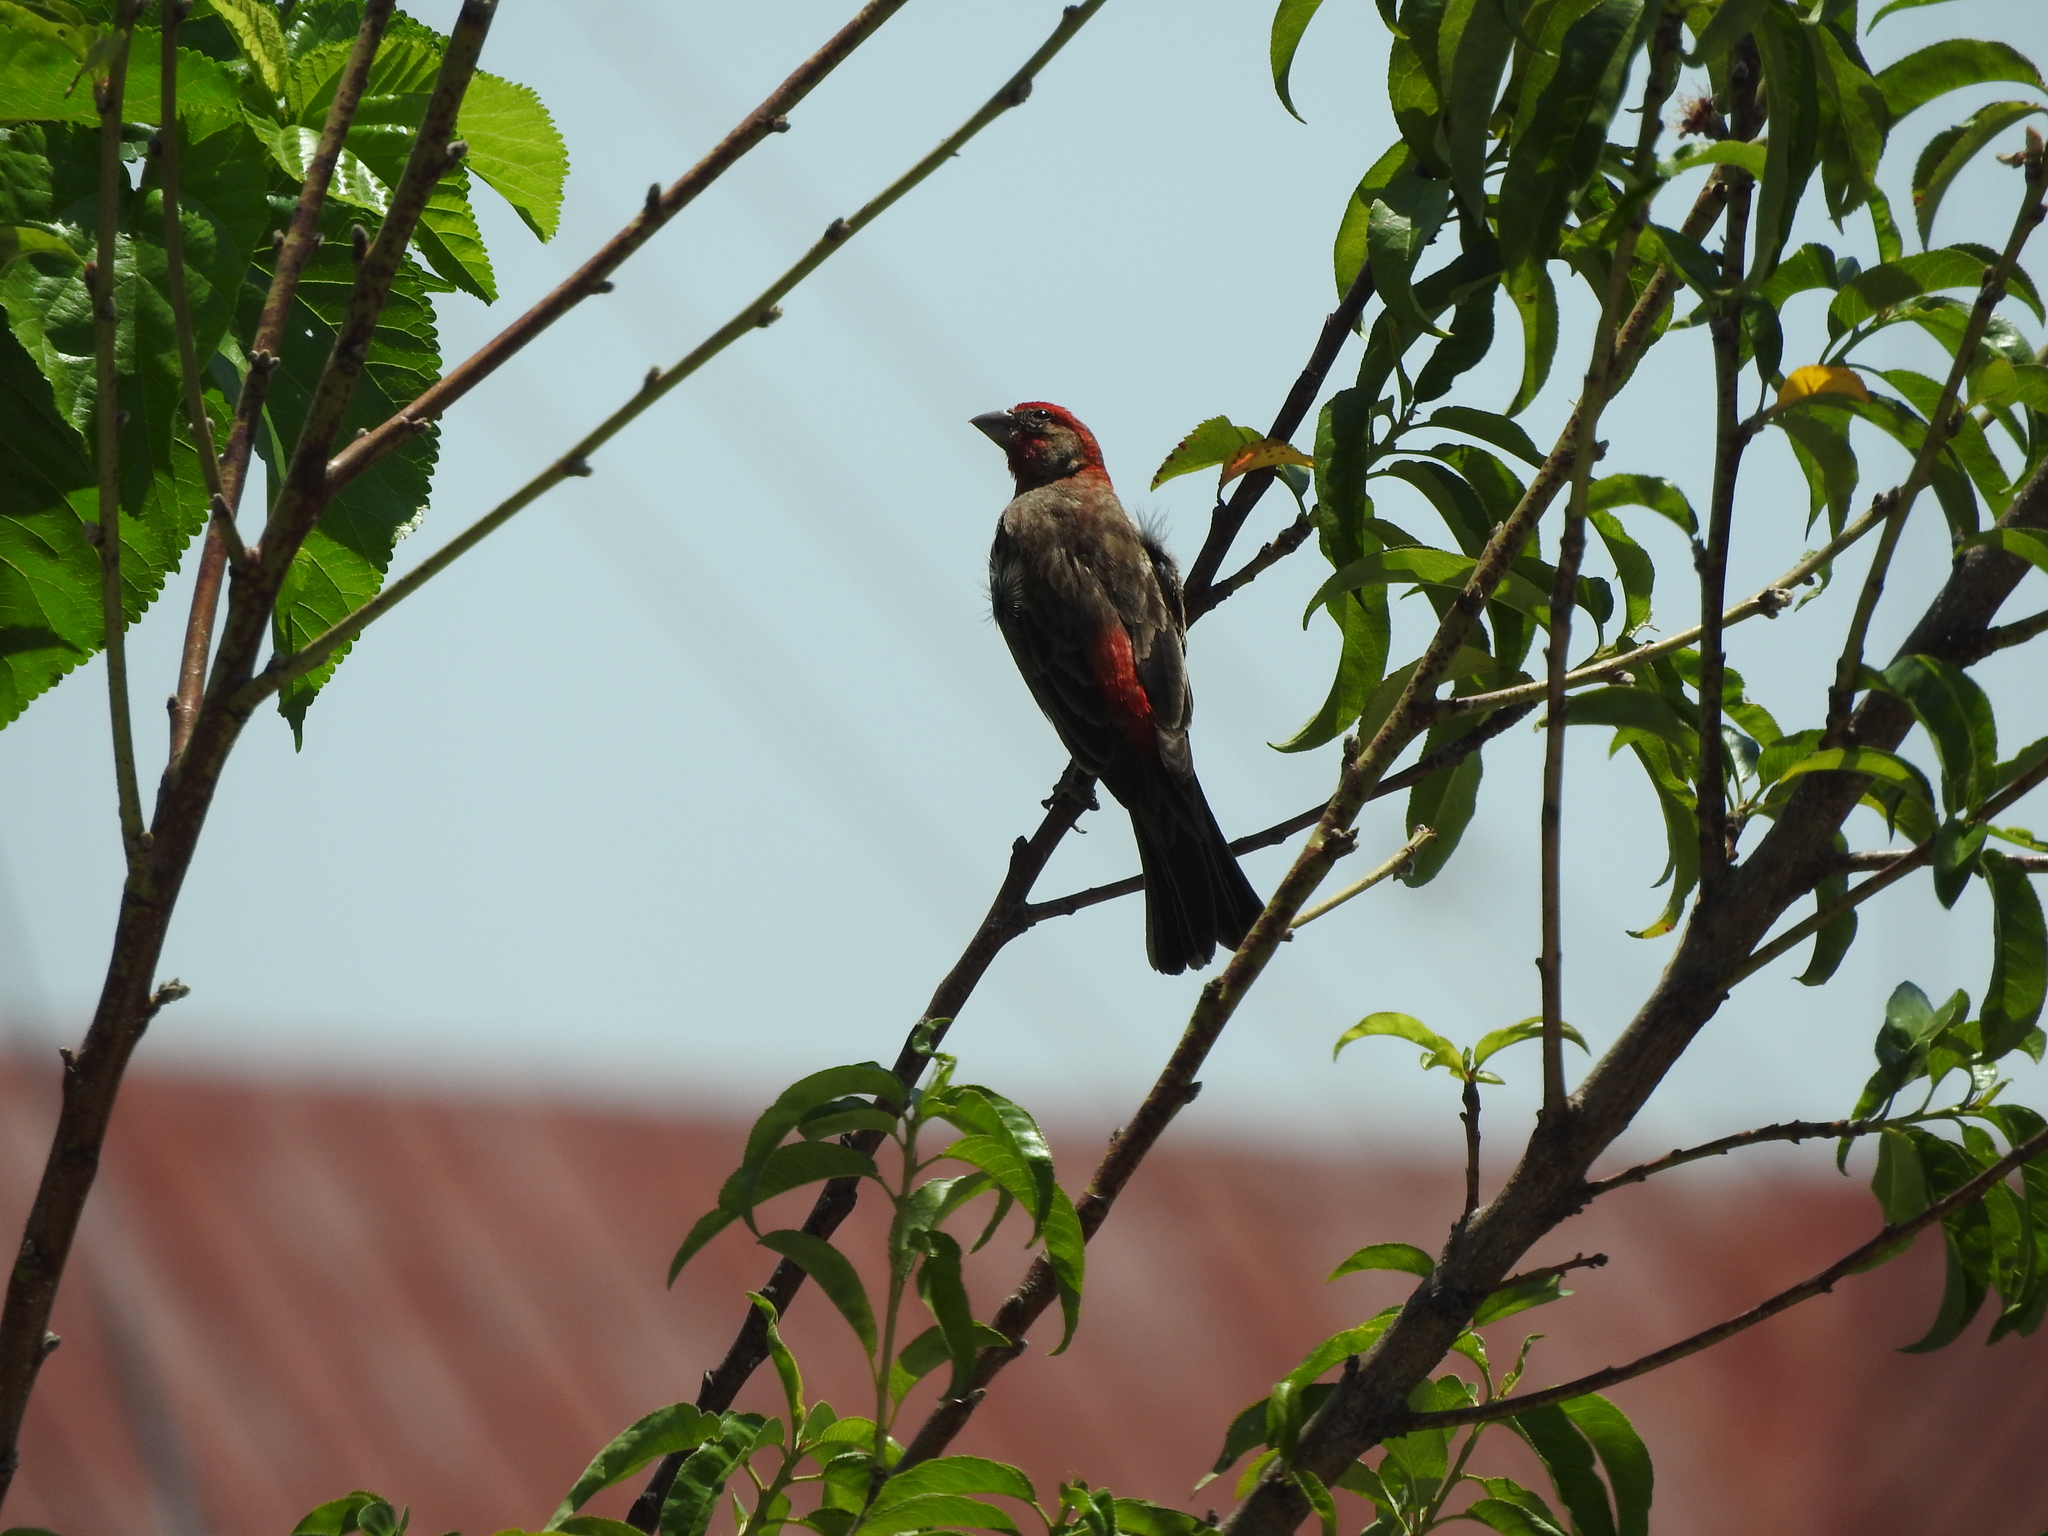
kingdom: Animalia
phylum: Chordata
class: Aves
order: Passeriformes
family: Fringillidae
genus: Haemorhous
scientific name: Haemorhous mexicanus
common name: House finch
